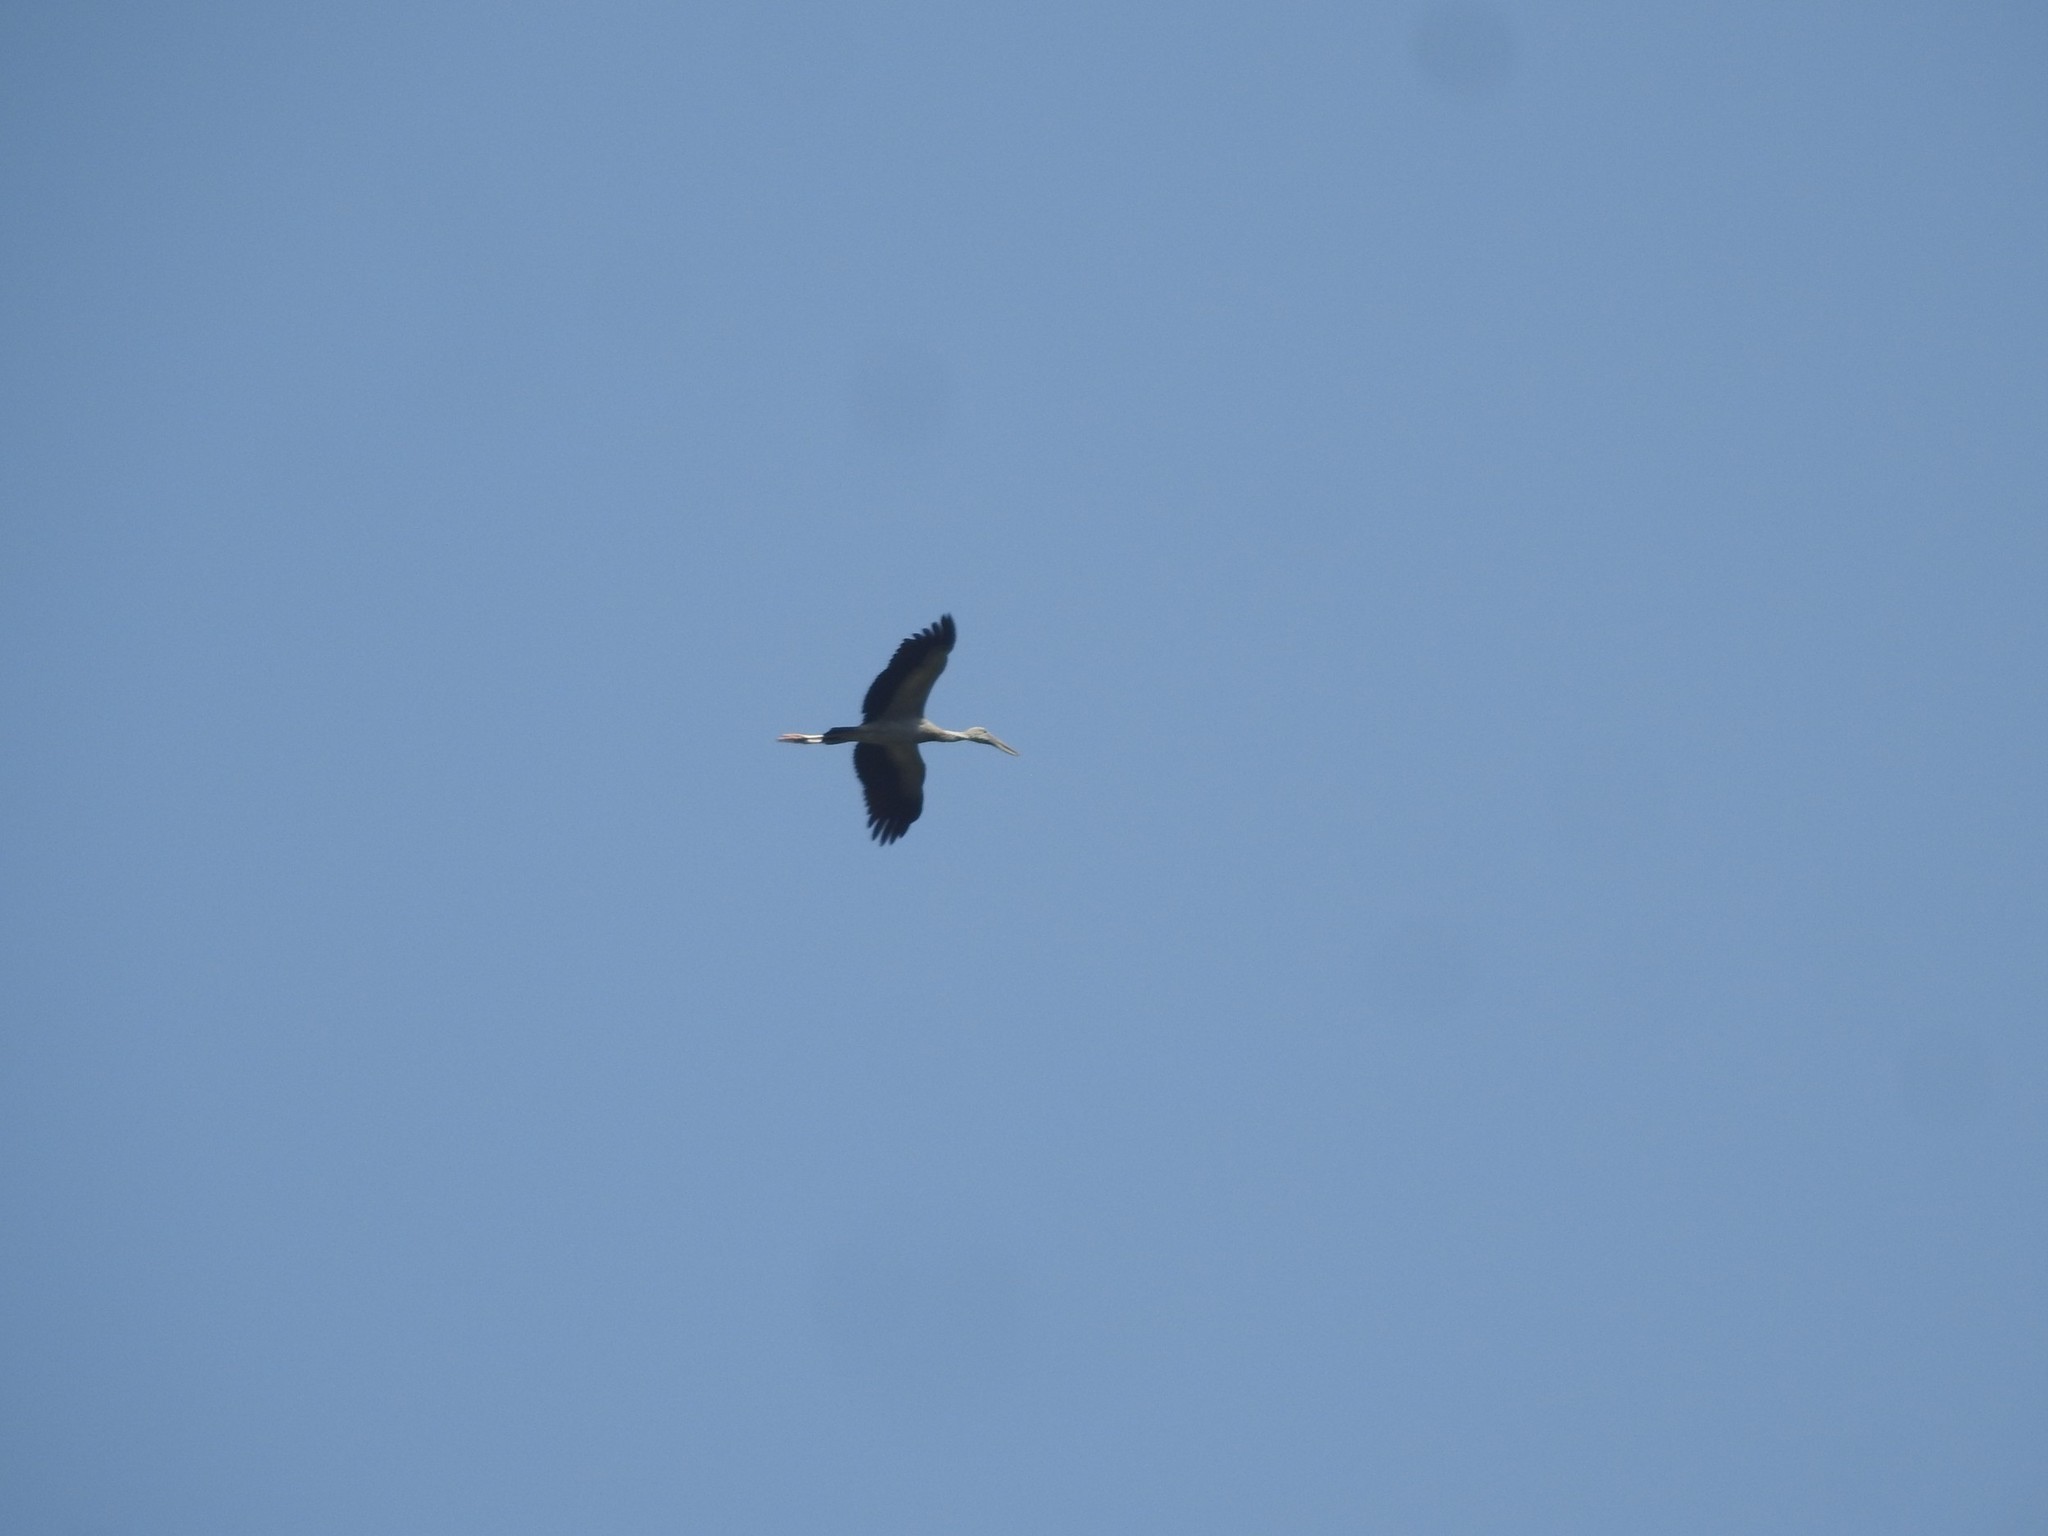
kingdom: Animalia
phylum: Chordata
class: Aves
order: Ciconiiformes
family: Ciconiidae
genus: Anastomus
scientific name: Anastomus oscitans
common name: Asian openbill
